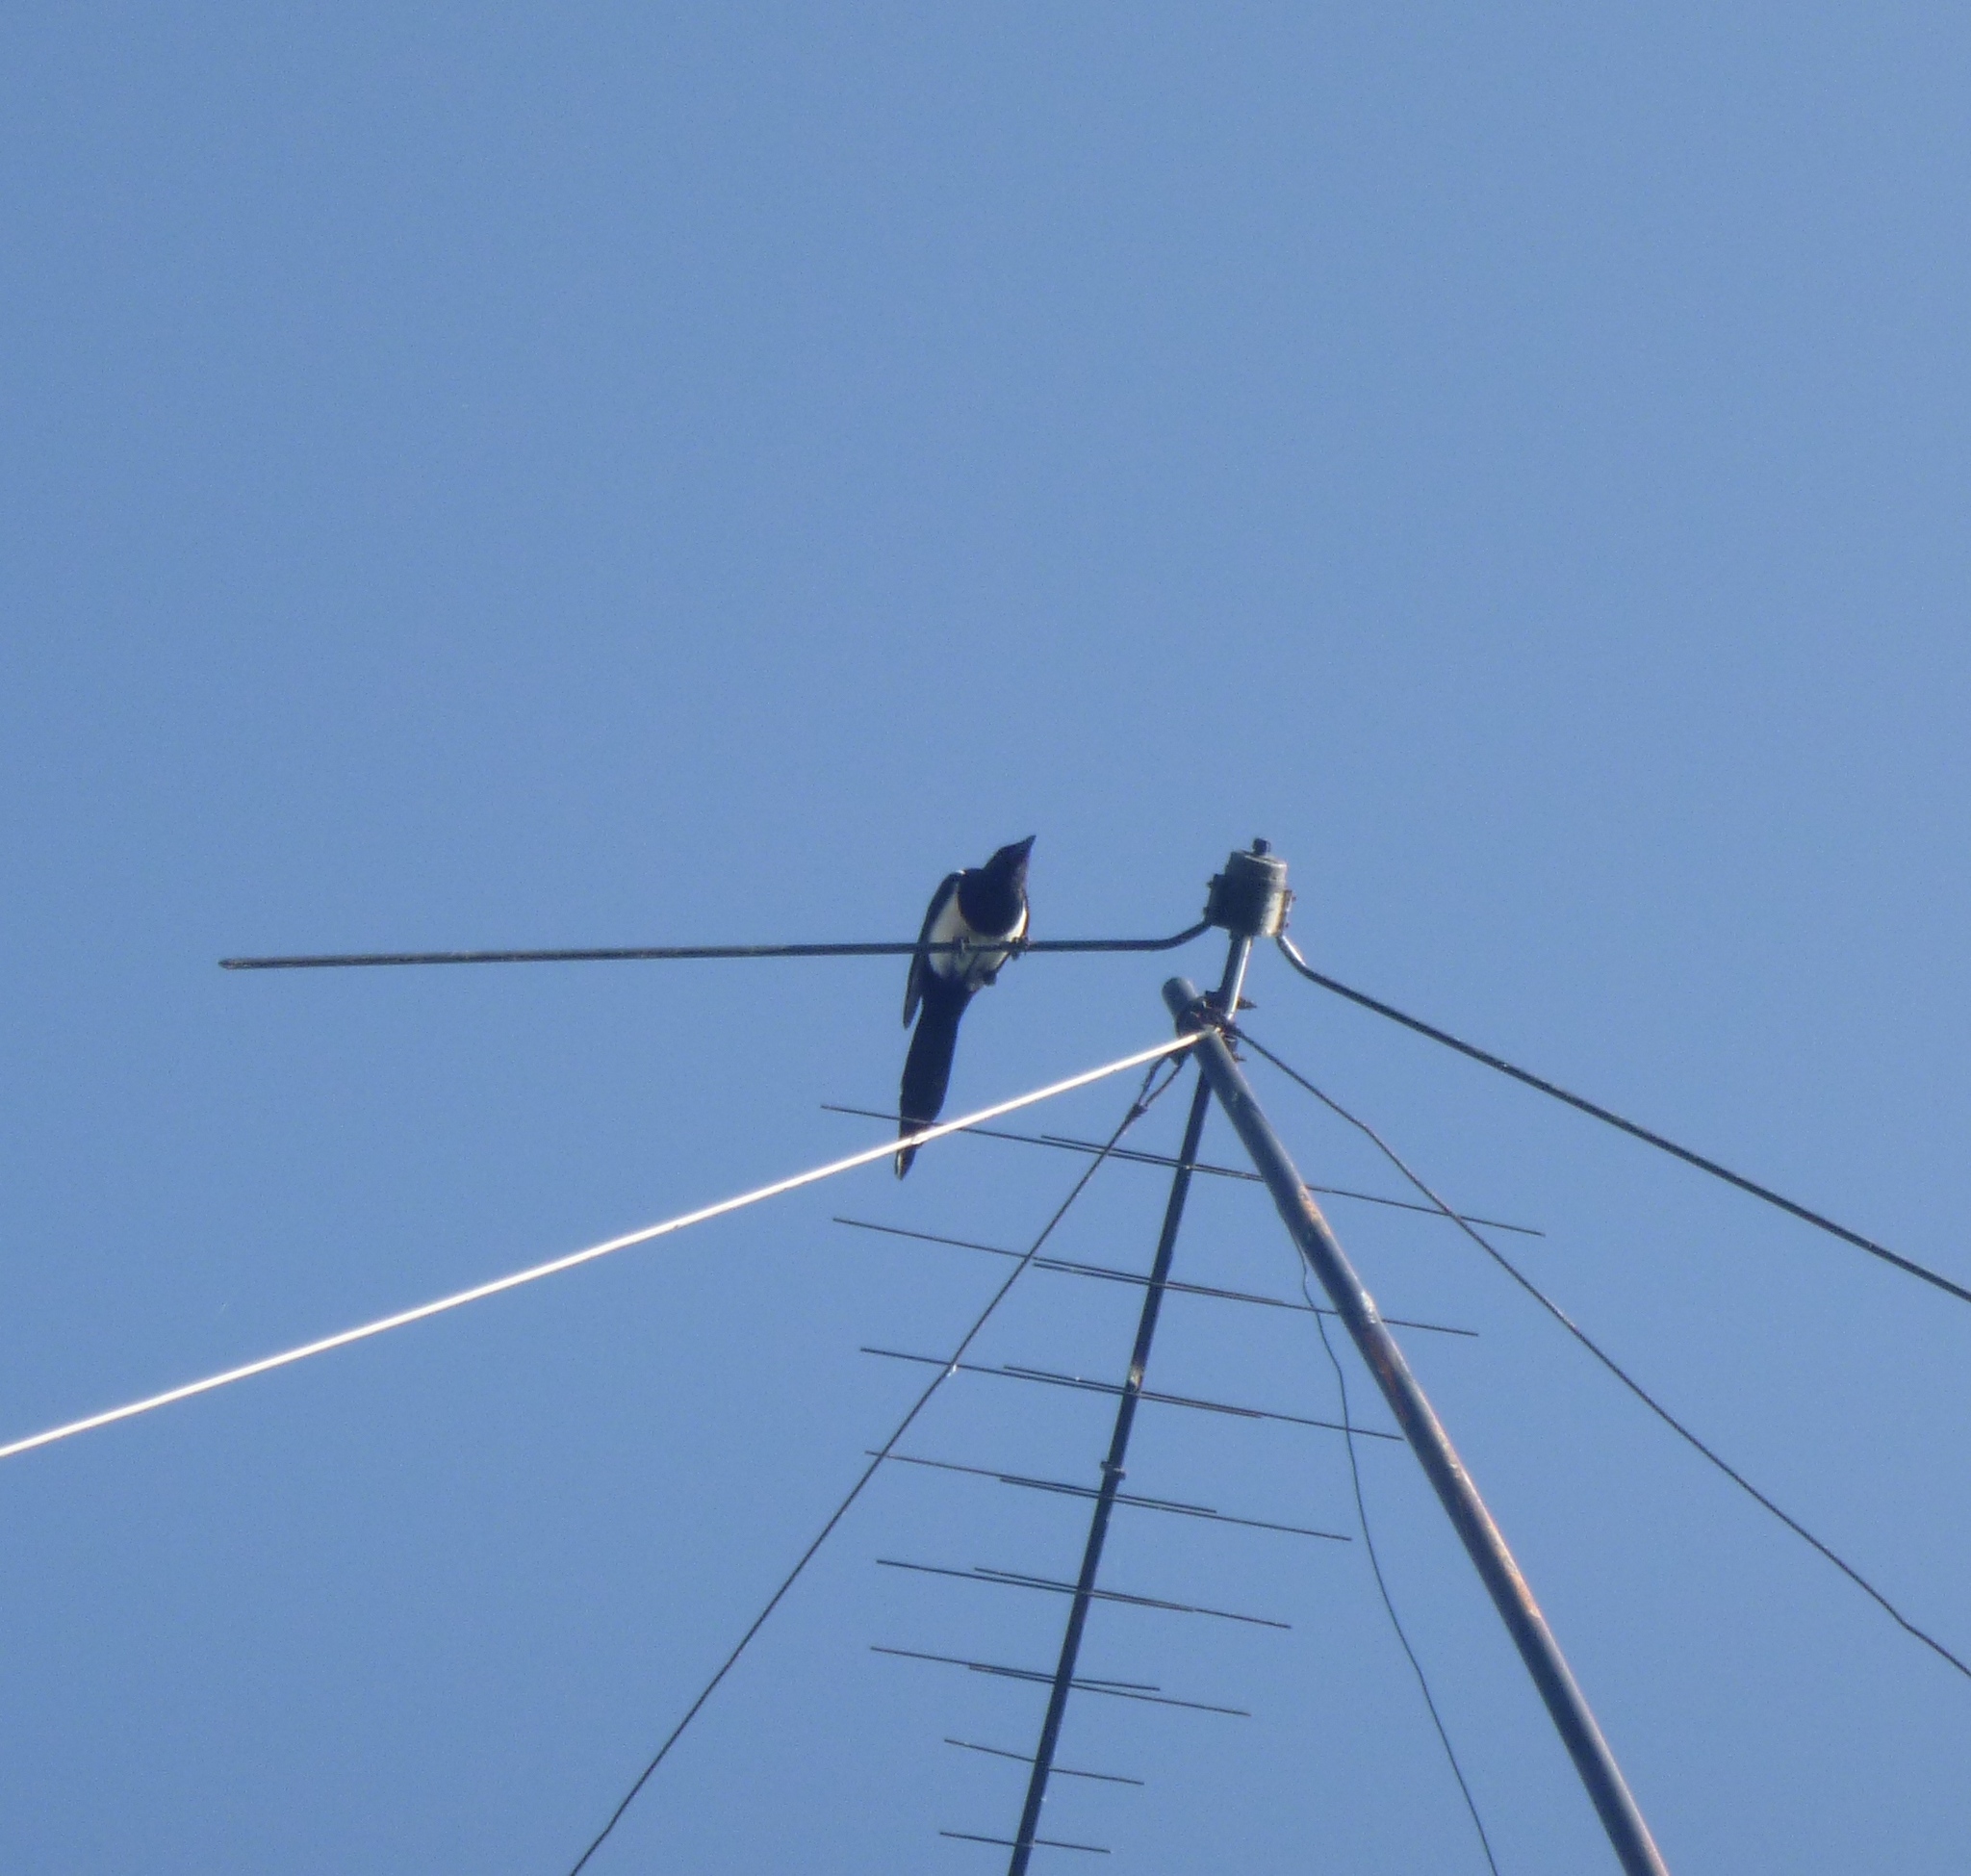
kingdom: Animalia
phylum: Chordata
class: Aves
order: Passeriformes
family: Corvidae
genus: Pica
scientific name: Pica pica
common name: Eurasian magpie
